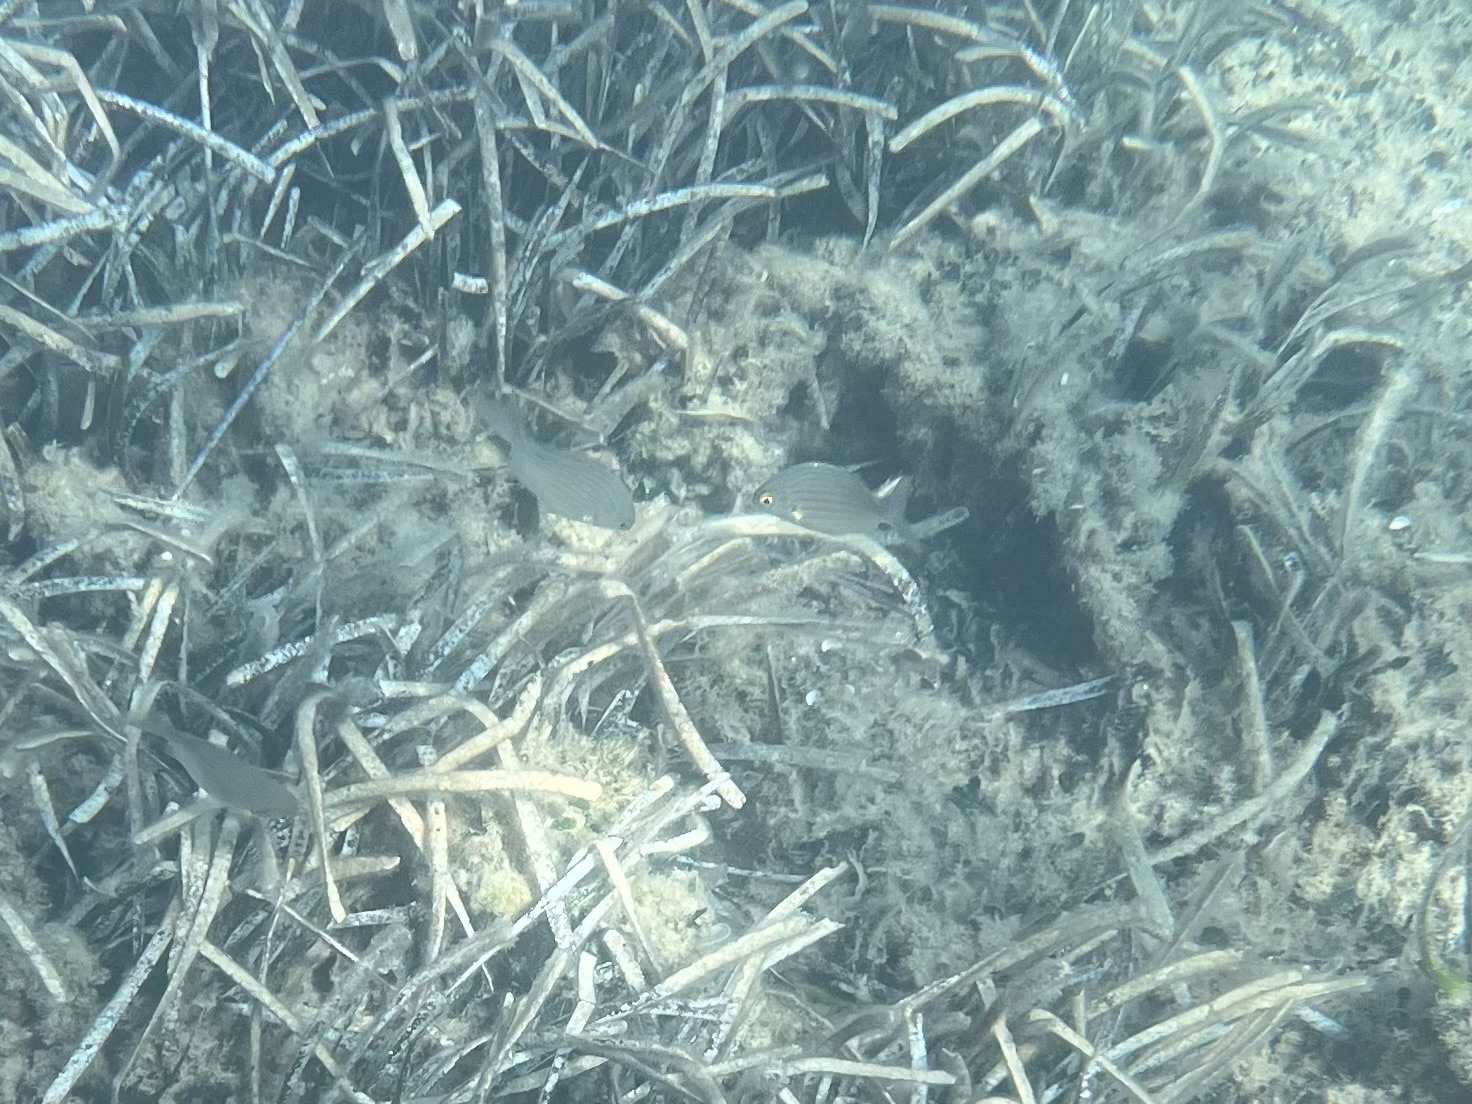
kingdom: Animalia
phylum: Chordata
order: Perciformes
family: Sparidae
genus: Sarpa
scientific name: Sarpa salpa
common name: Salema
